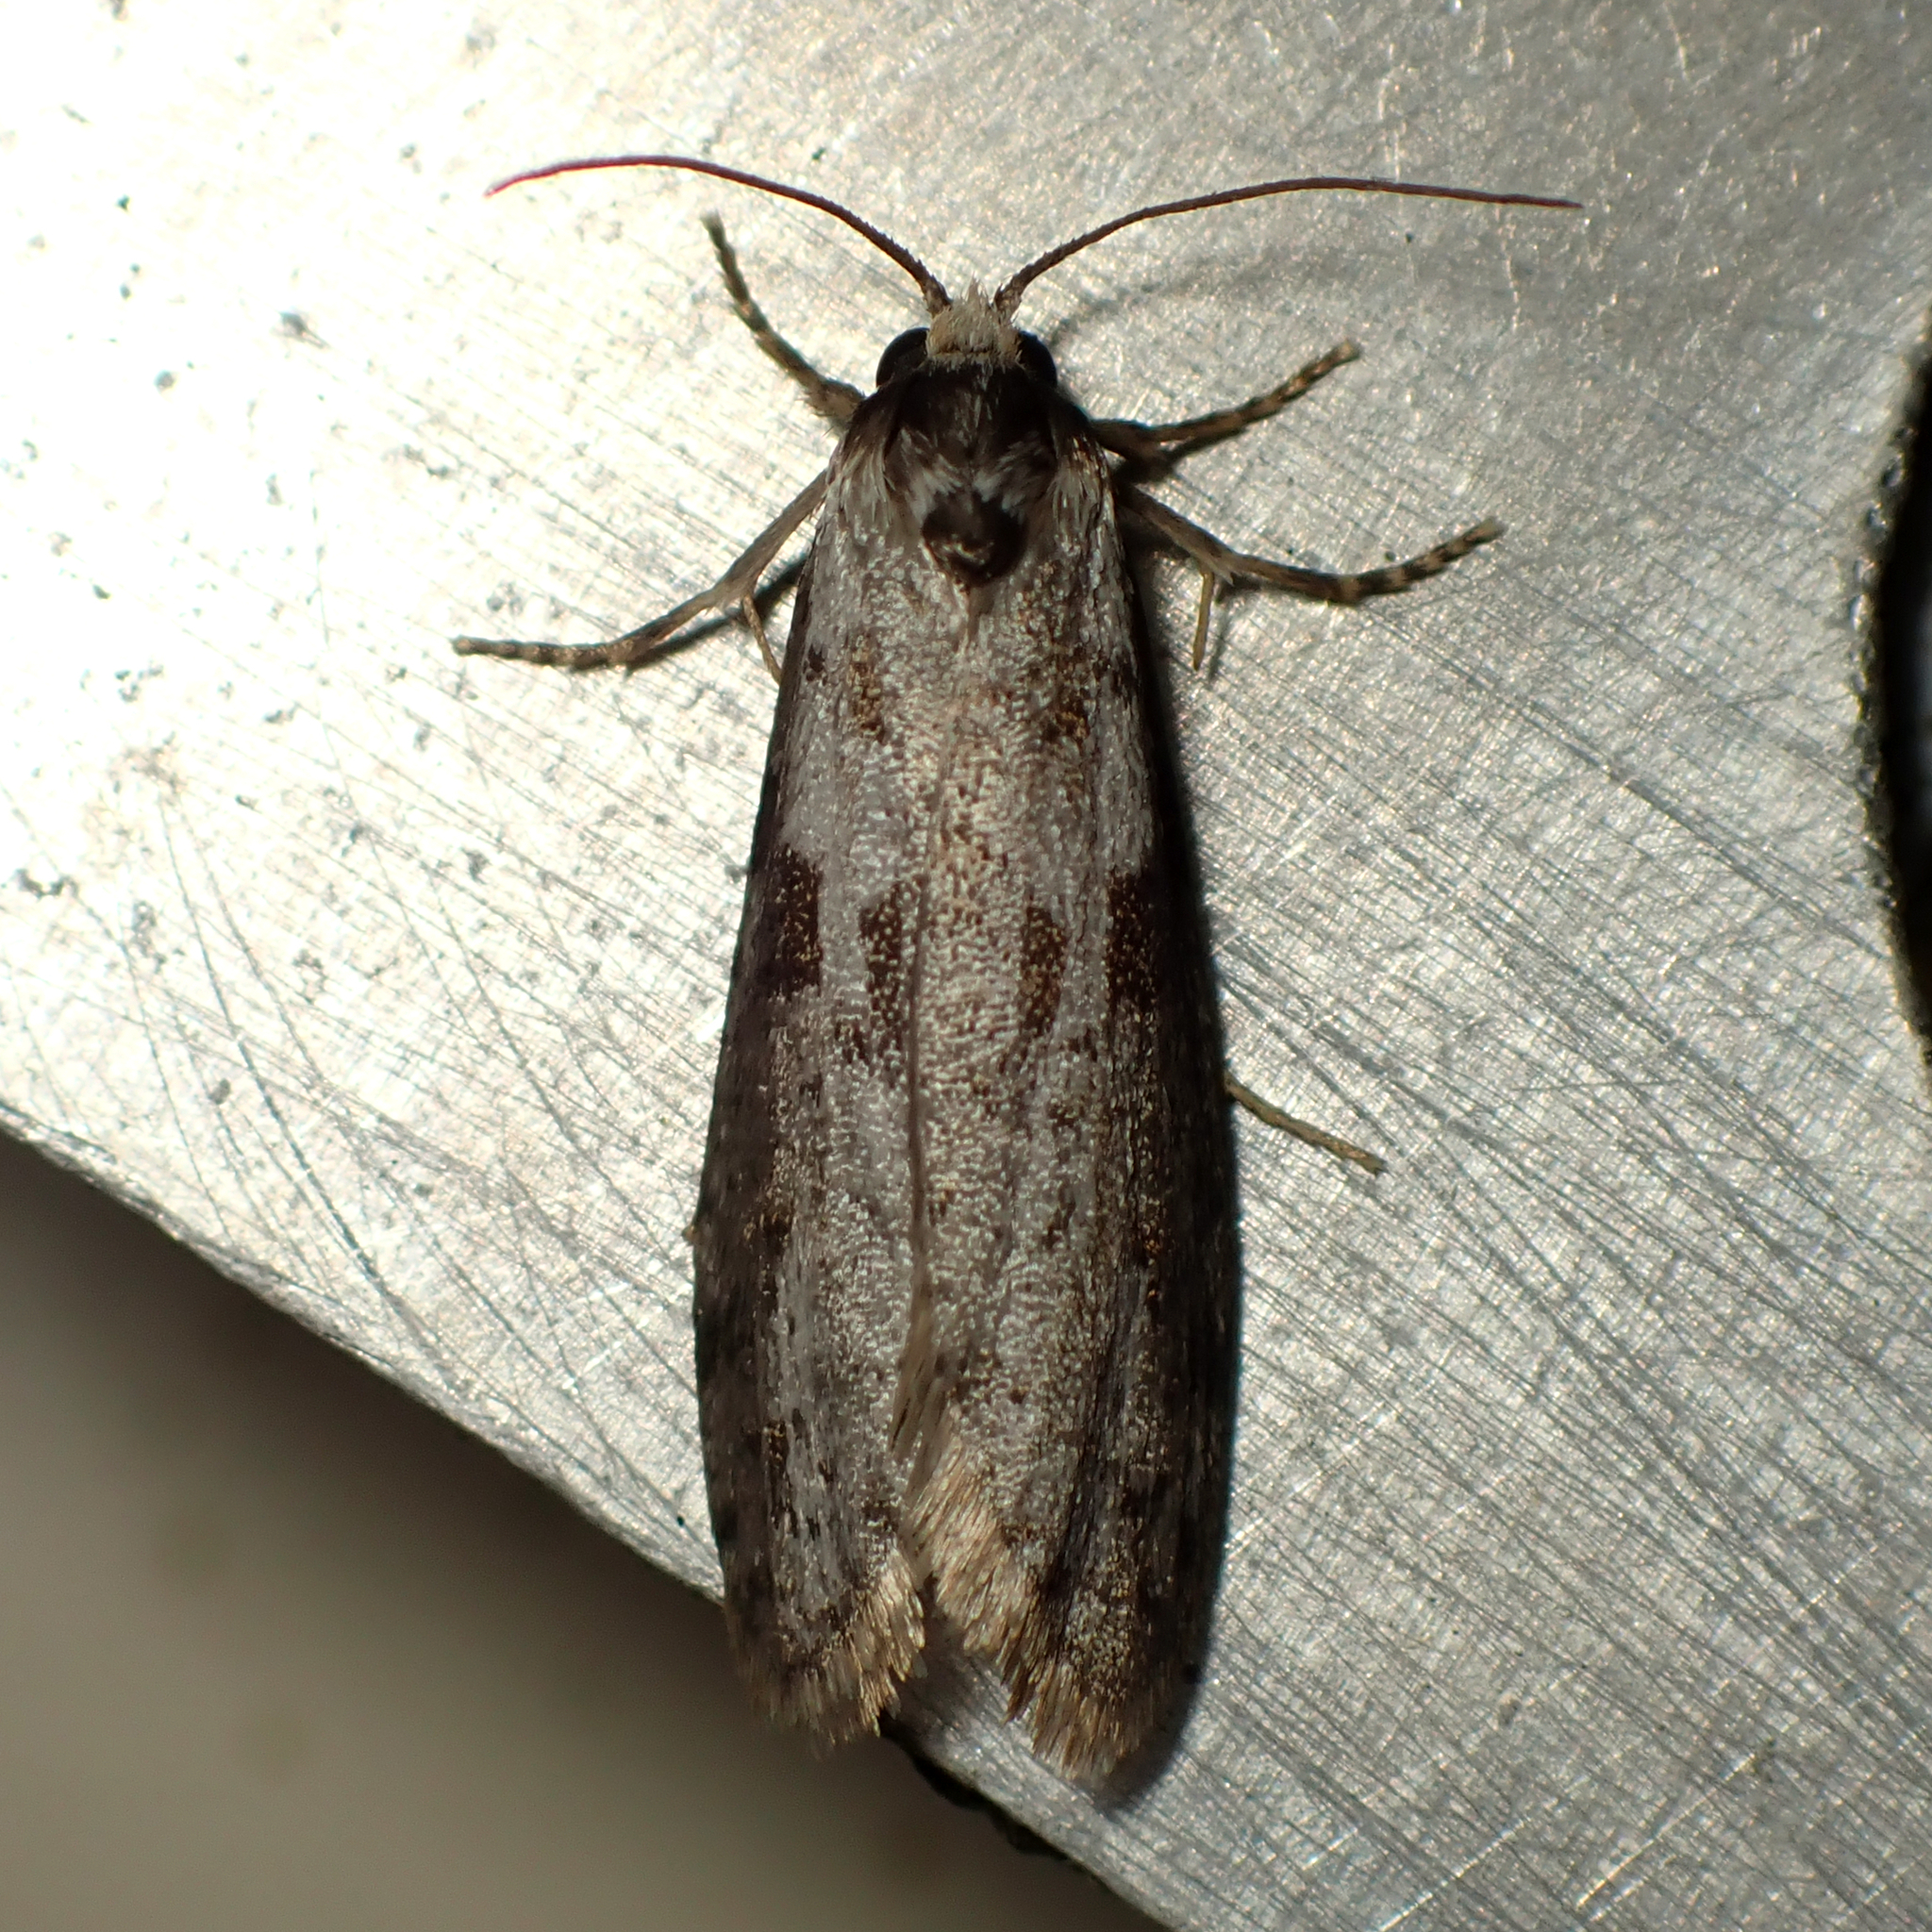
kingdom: Animalia
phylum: Arthropoda
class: Insecta
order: Lepidoptera
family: Psychidae
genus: Lepidoscia
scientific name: Lepidoscia protorna
